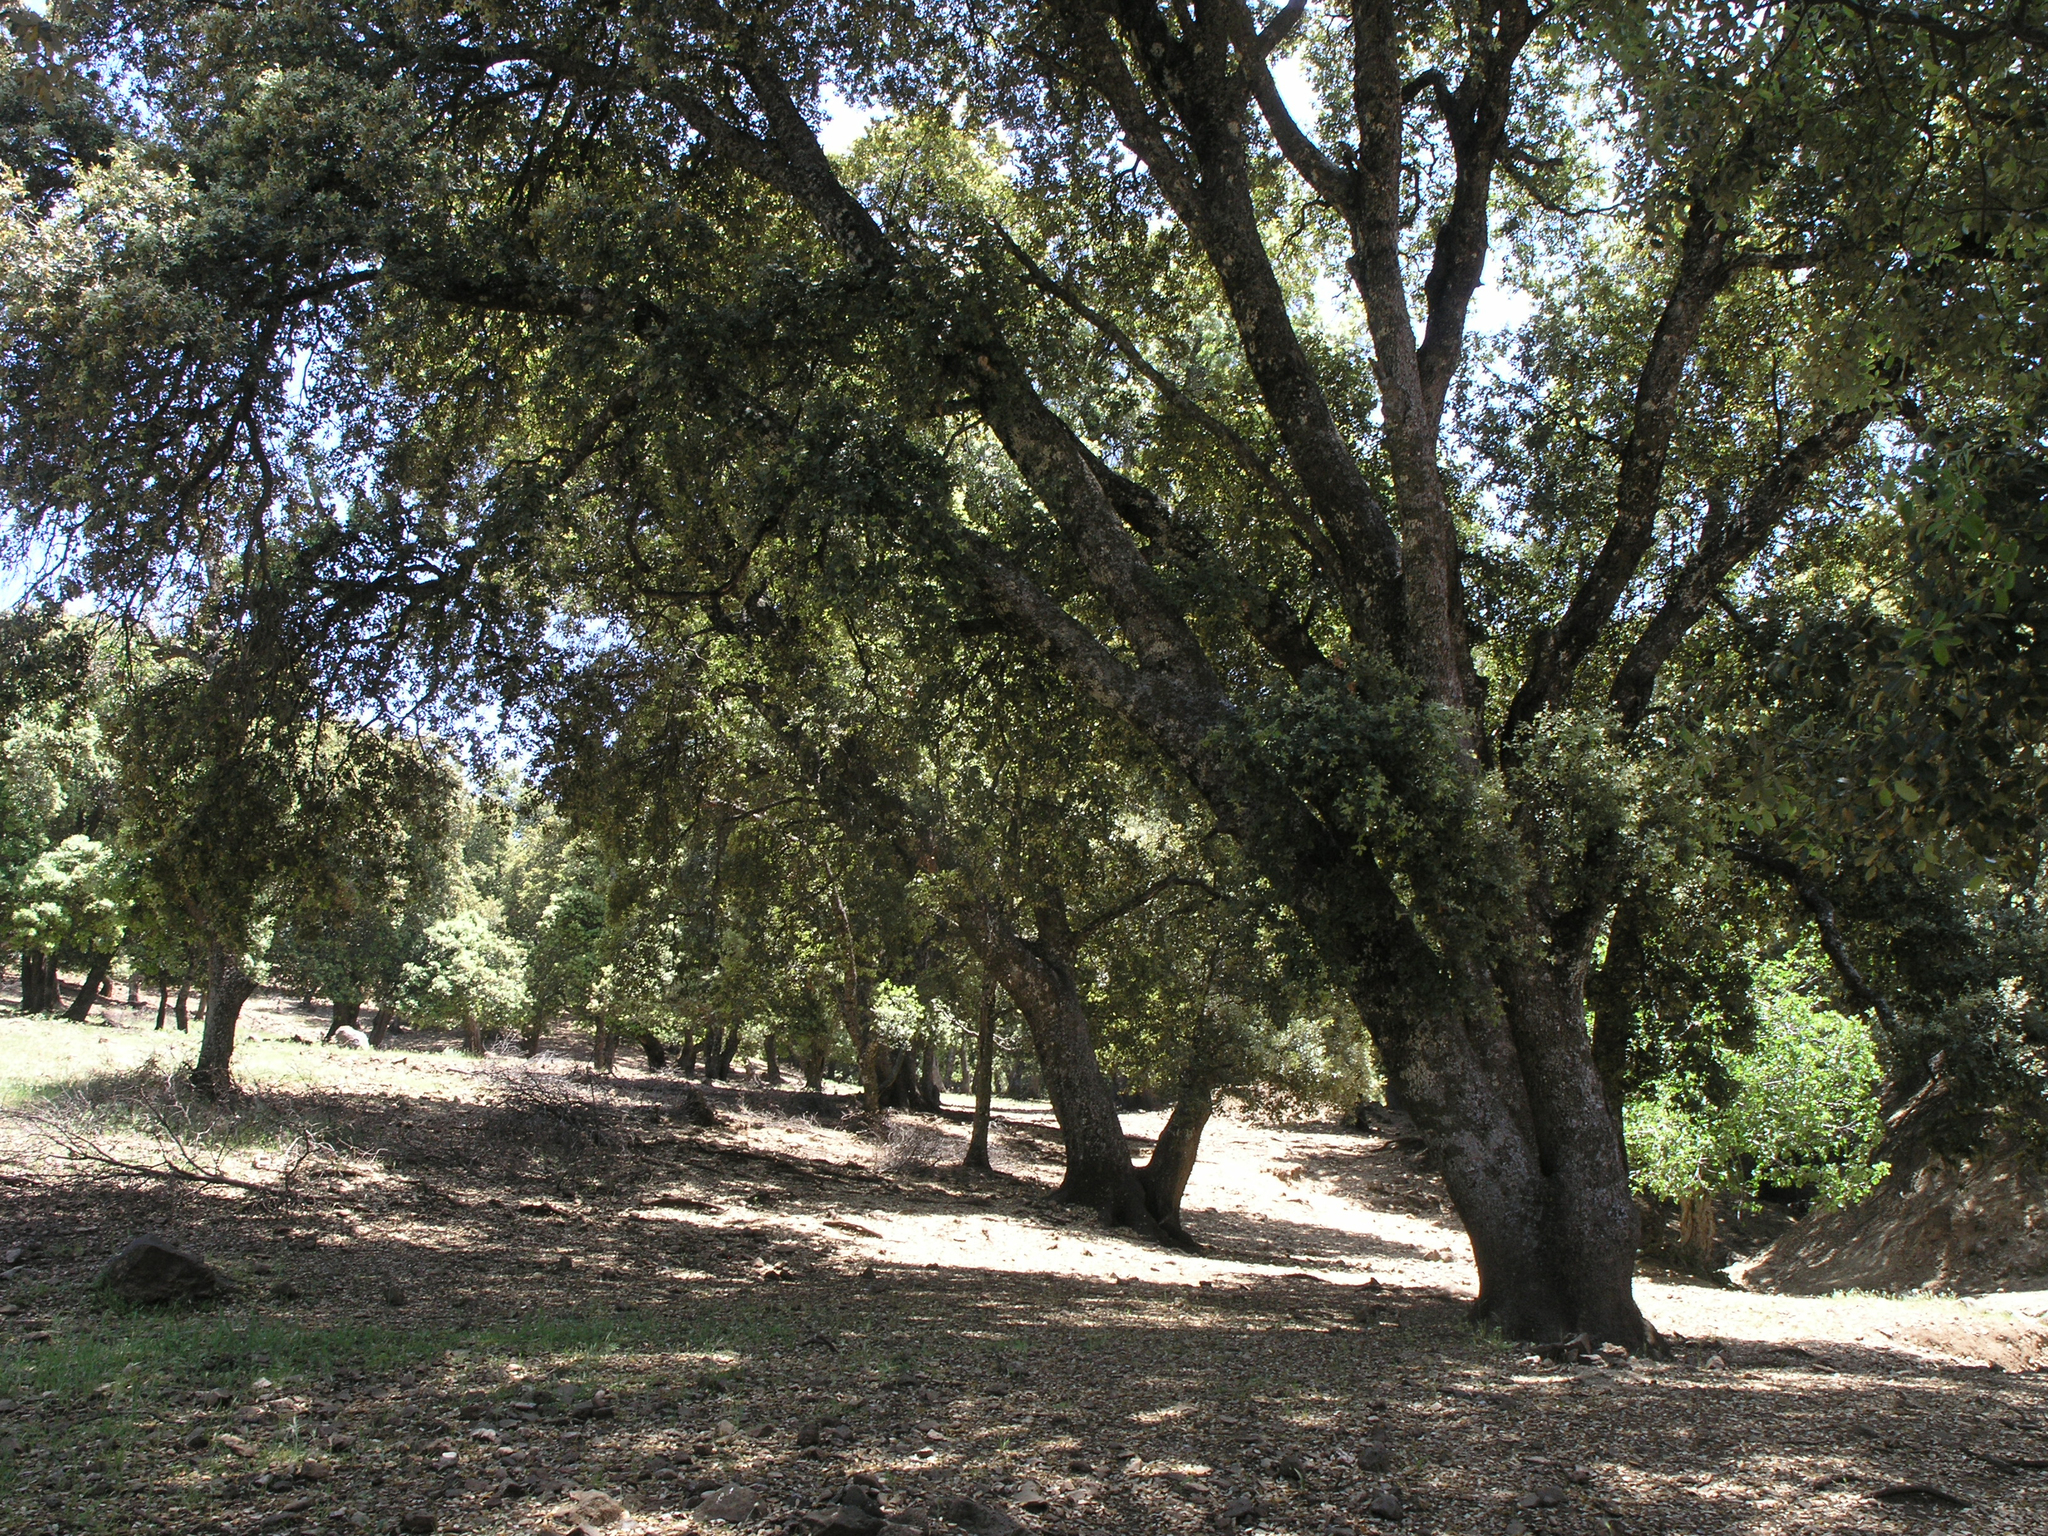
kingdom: Plantae
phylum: Tracheophyta
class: Magnoliopsida
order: Fagales
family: Fagaceae
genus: Quercus
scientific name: Quercus rotundifolia
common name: Holm oak
